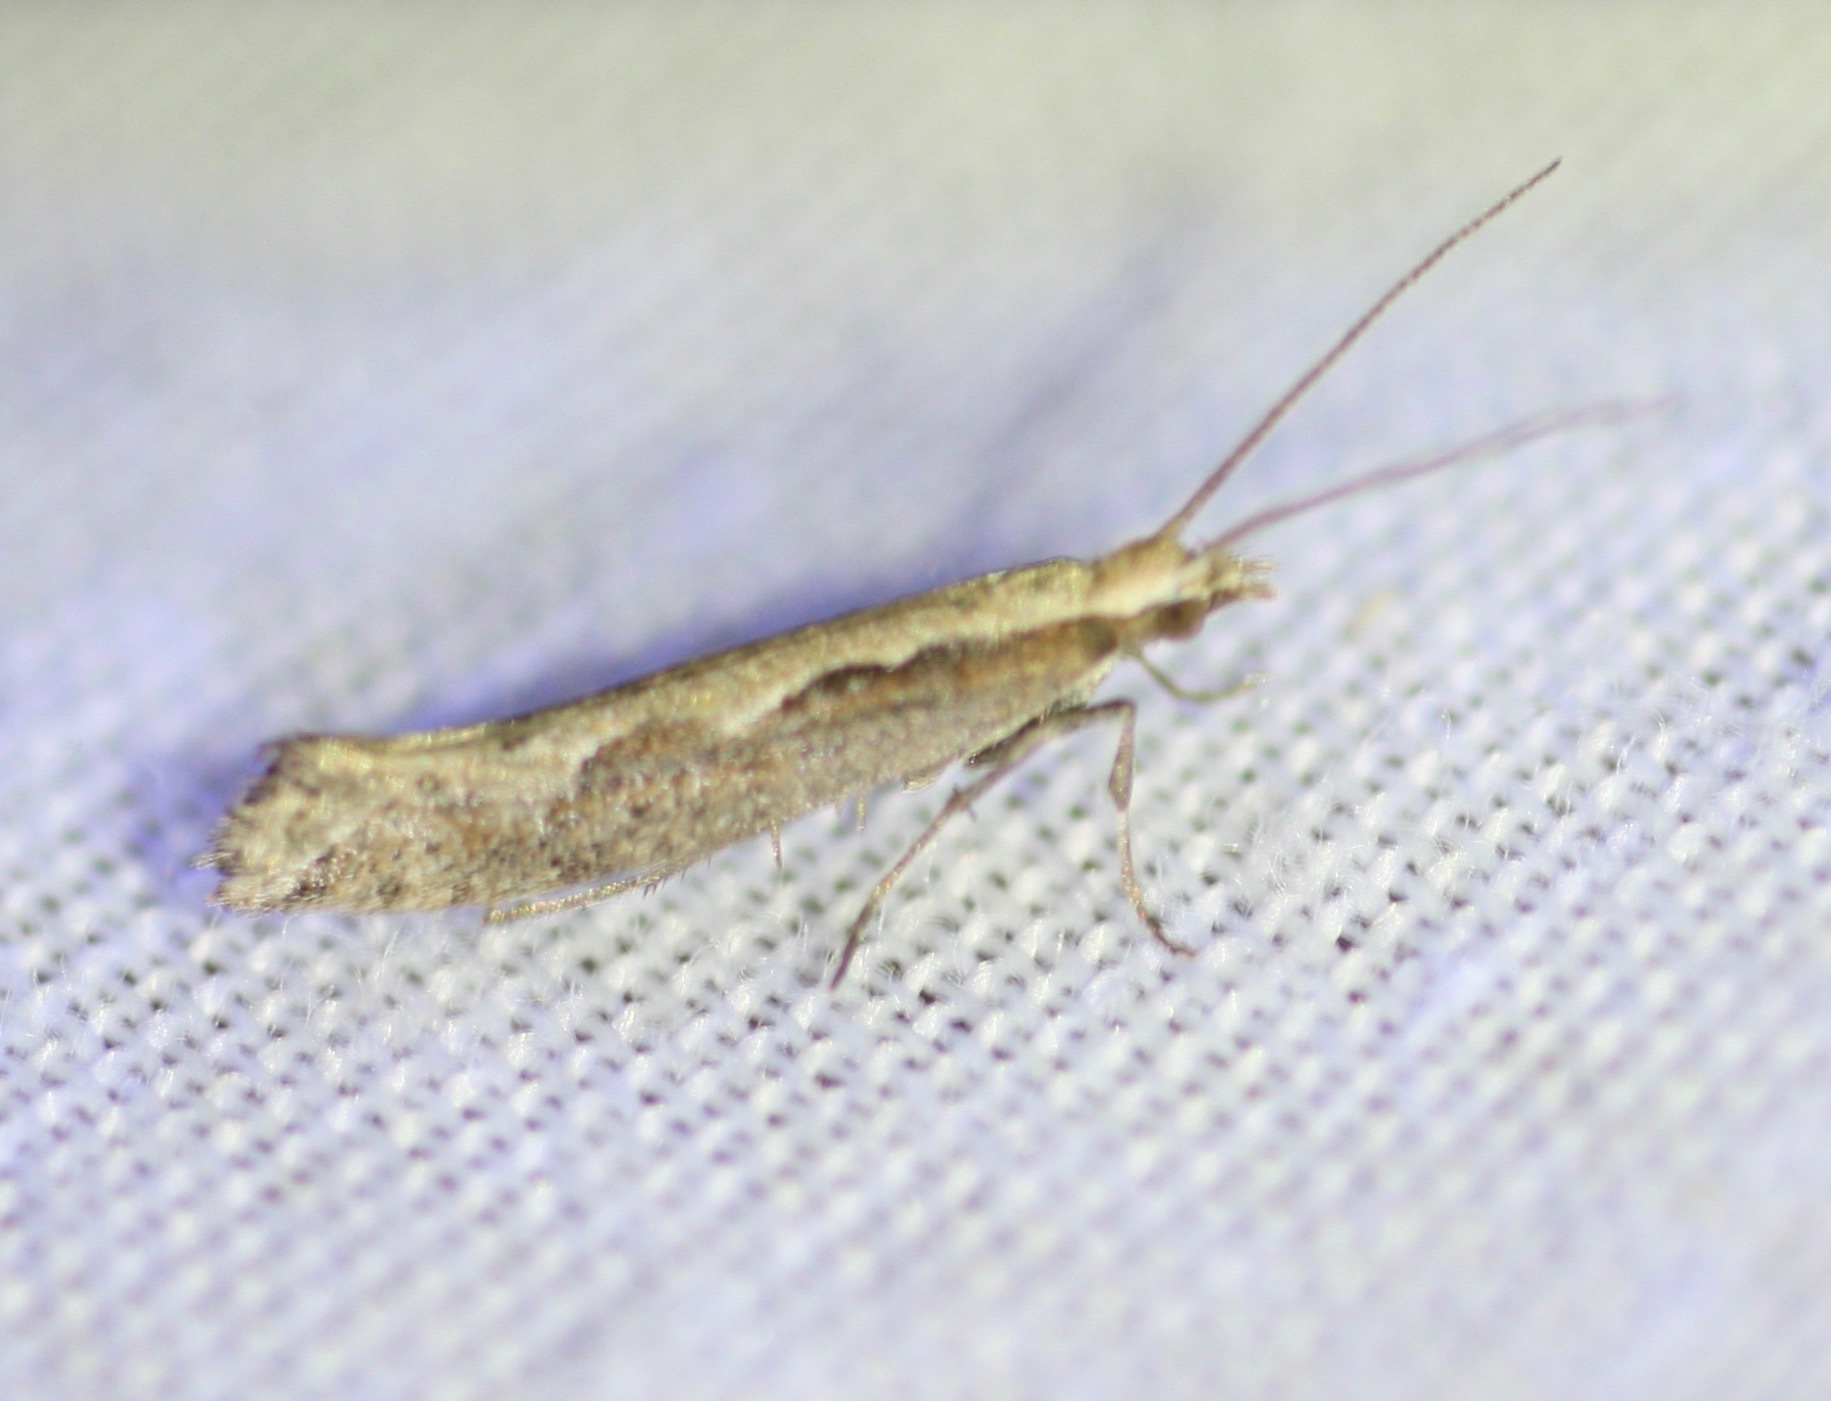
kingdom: Animalia
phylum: Arthropoda
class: Insecta
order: Lepidoptera
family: Plutellidae
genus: Plutella
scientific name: Plutella xylostella
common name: Diamond-back moth
